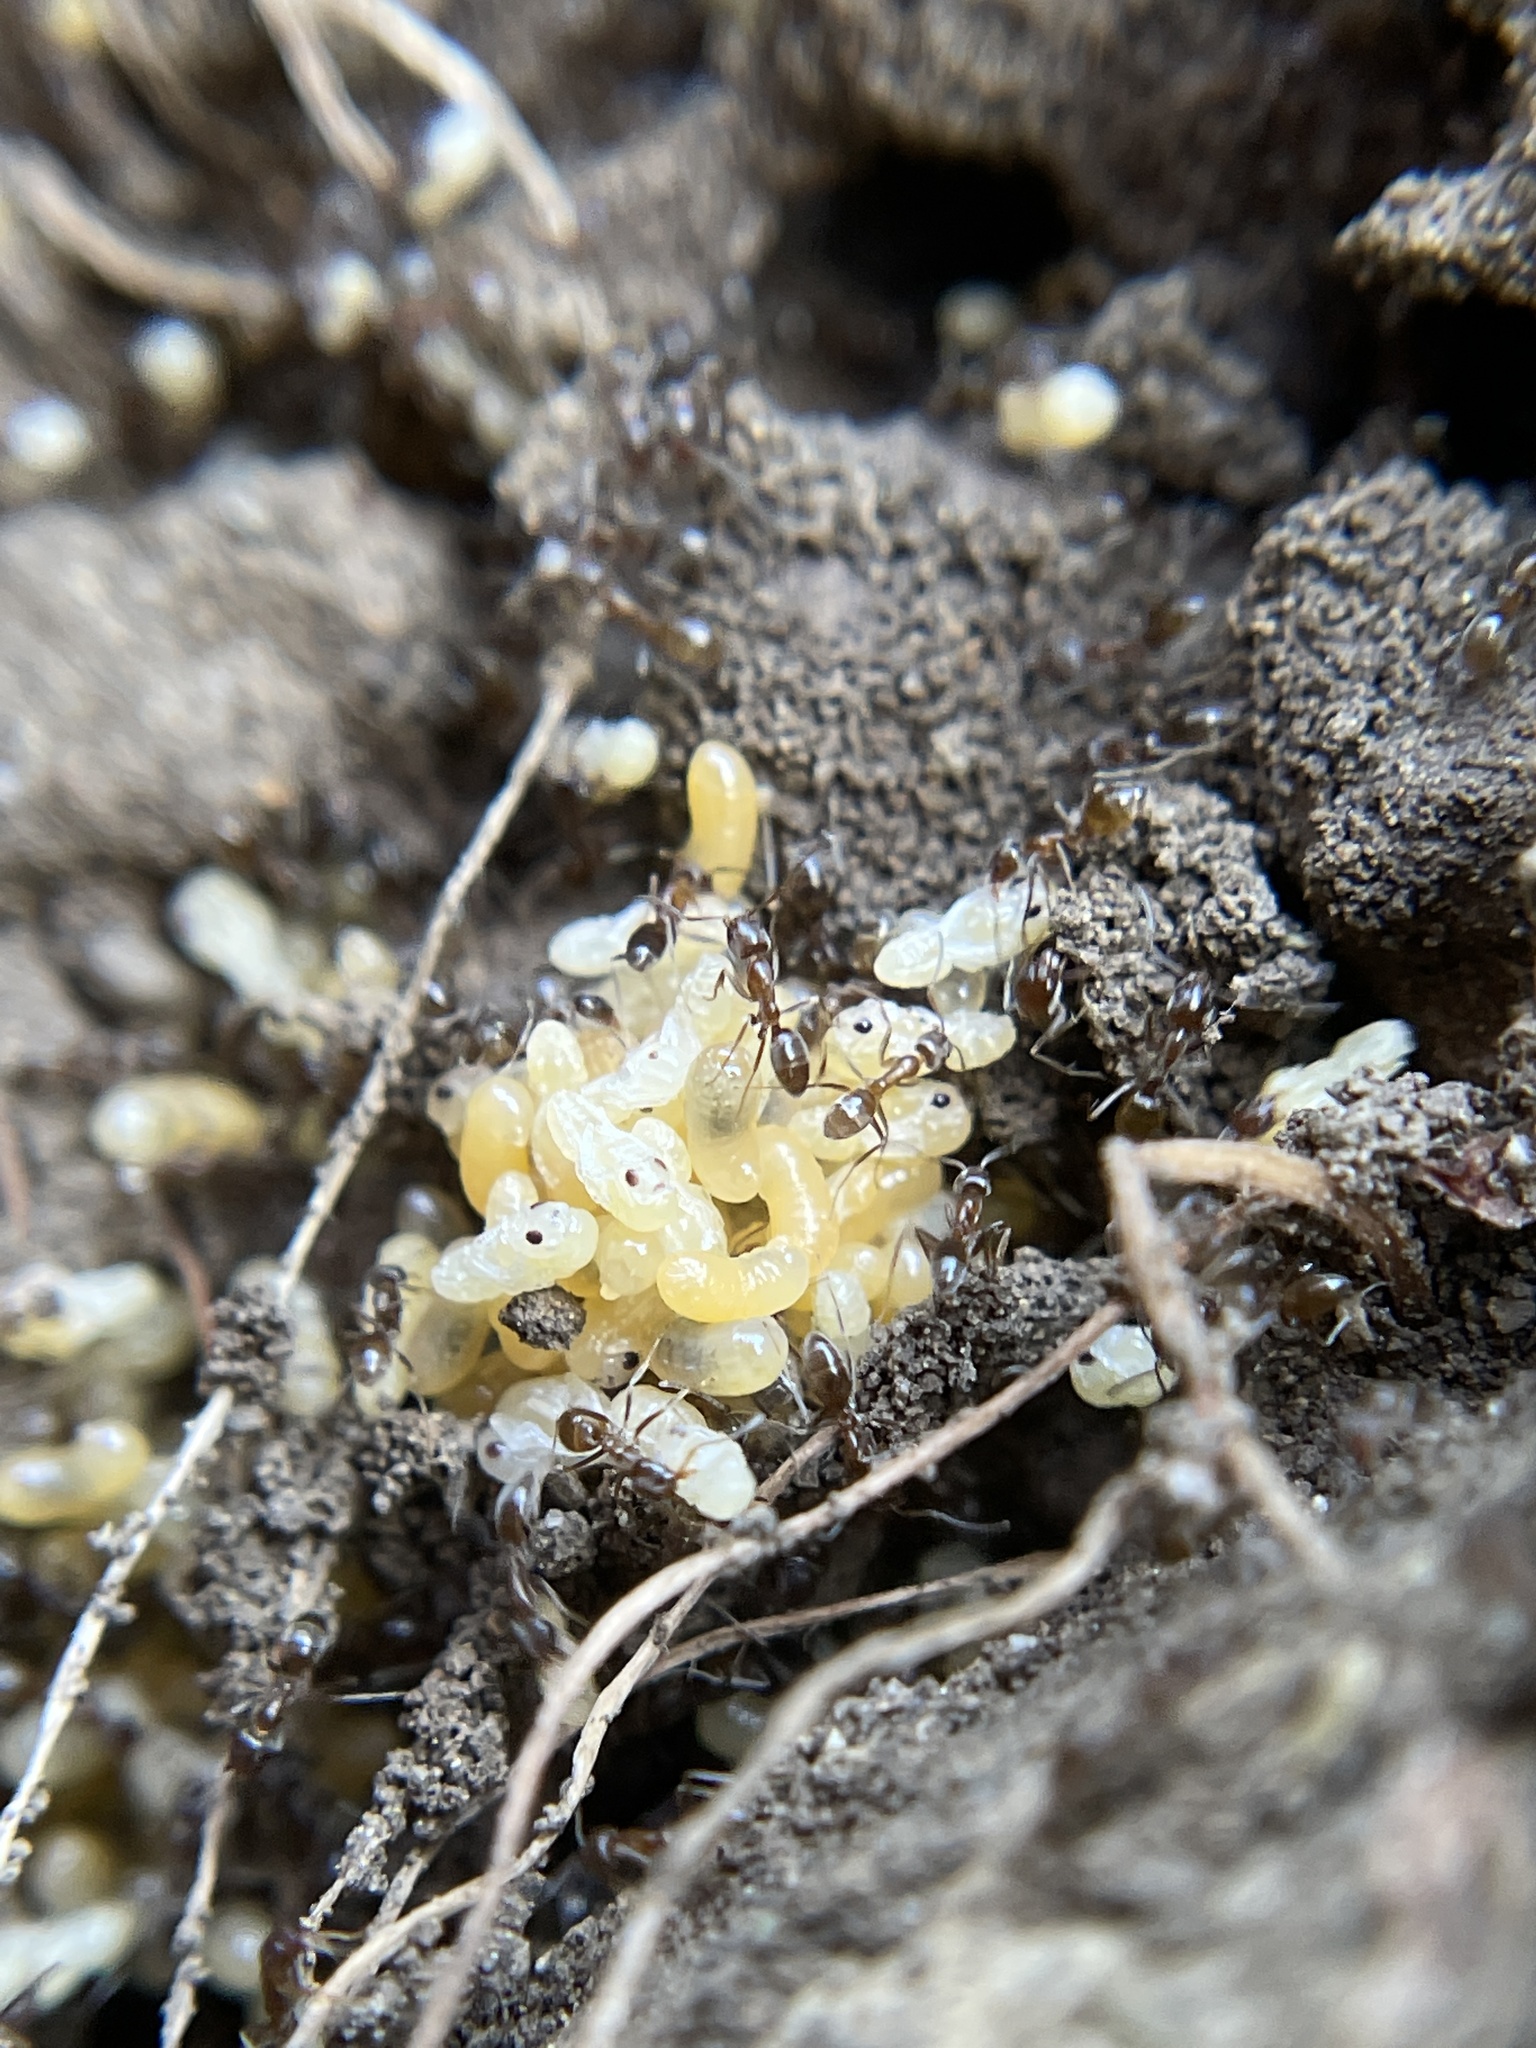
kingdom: Animalia
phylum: Arthropoda
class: Insecta
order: Hymenoptera
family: Formicidae
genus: Linepithema
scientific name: Linepithema humile
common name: Argentine ant
